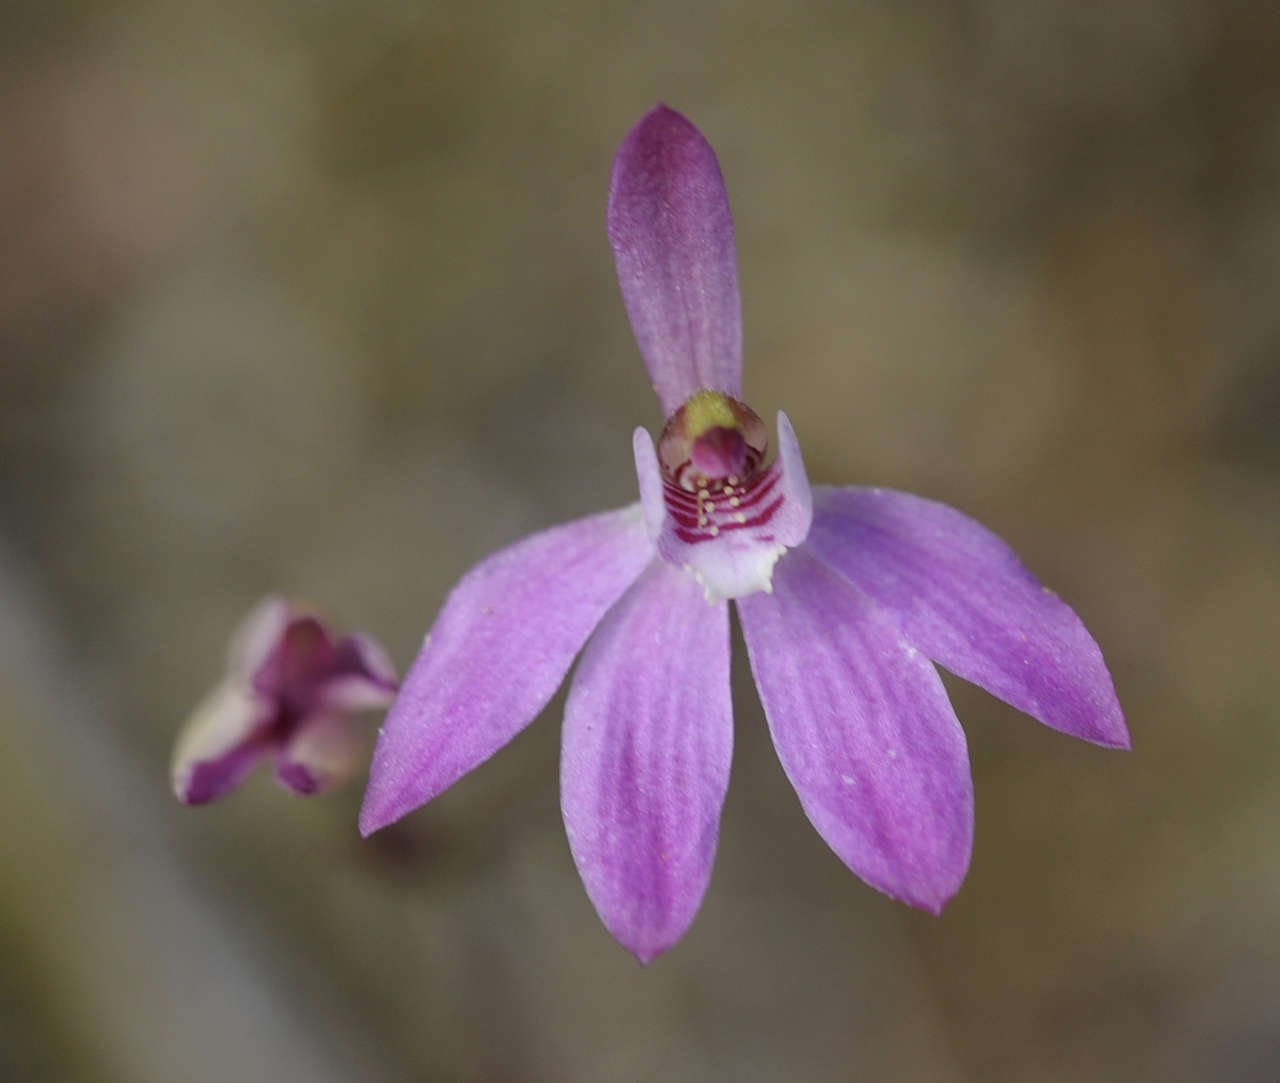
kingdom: Plantae
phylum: Tracheophyta
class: Liliopsida
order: Asparagales
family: Orchidaceae
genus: Caladenia
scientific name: Caladenia carnea
